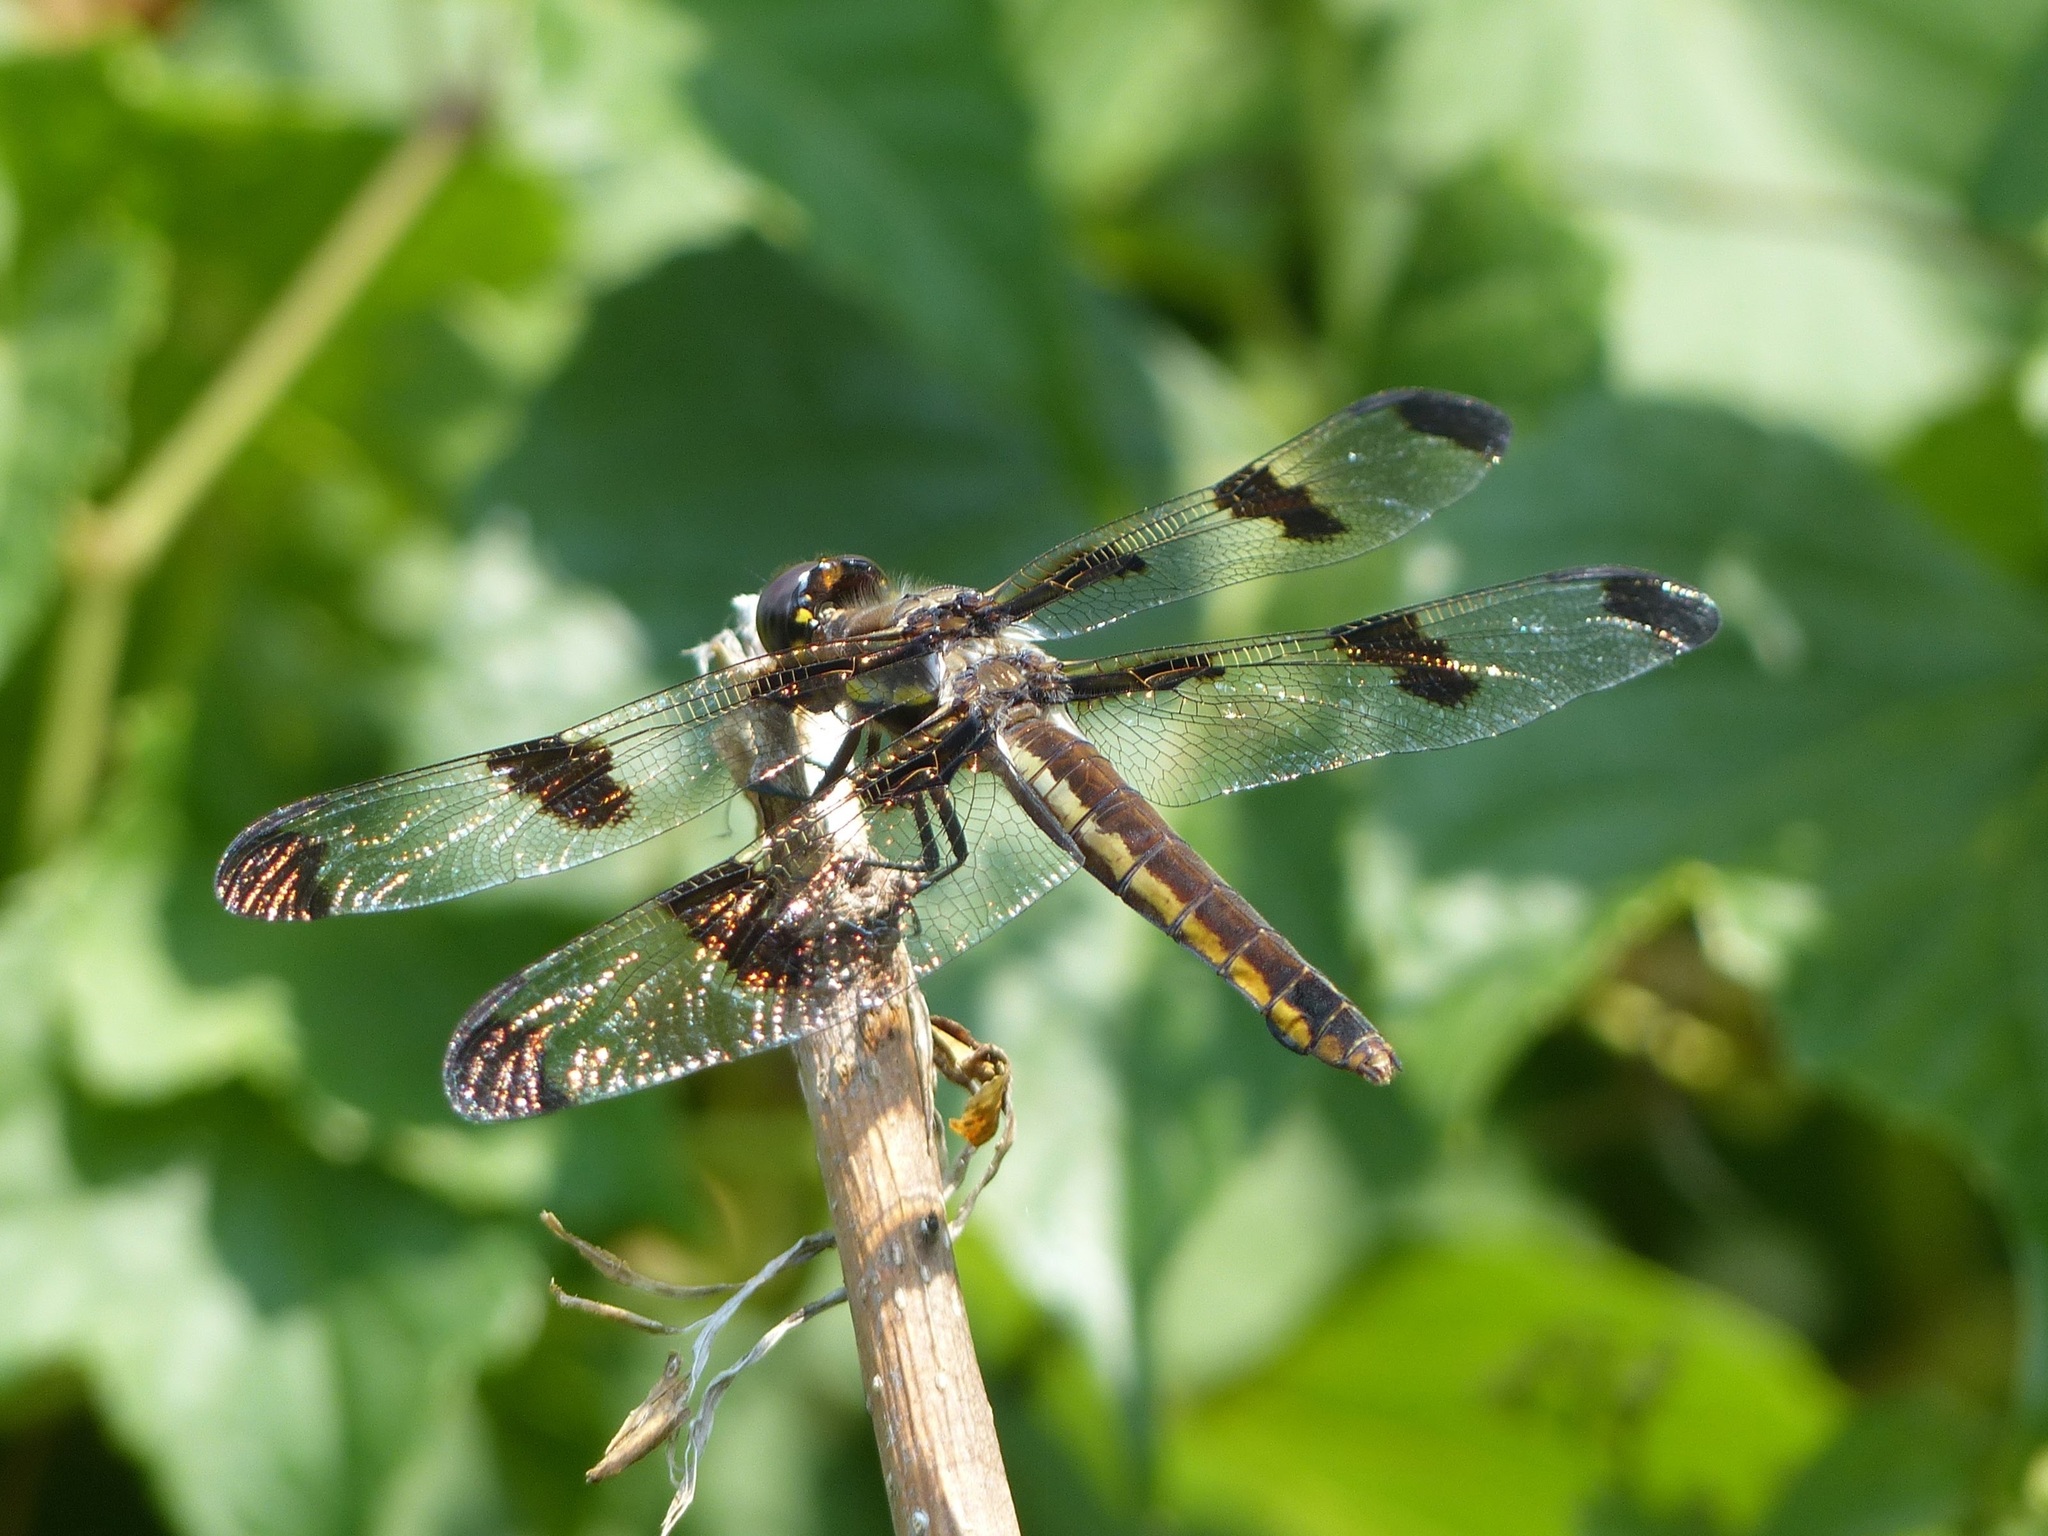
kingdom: Animalia
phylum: Arthropoda
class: Insecta
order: Odonata
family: Libellulidae
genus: Libellula
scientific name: Libellula pulchella
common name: Twelve-spotted skimmer
